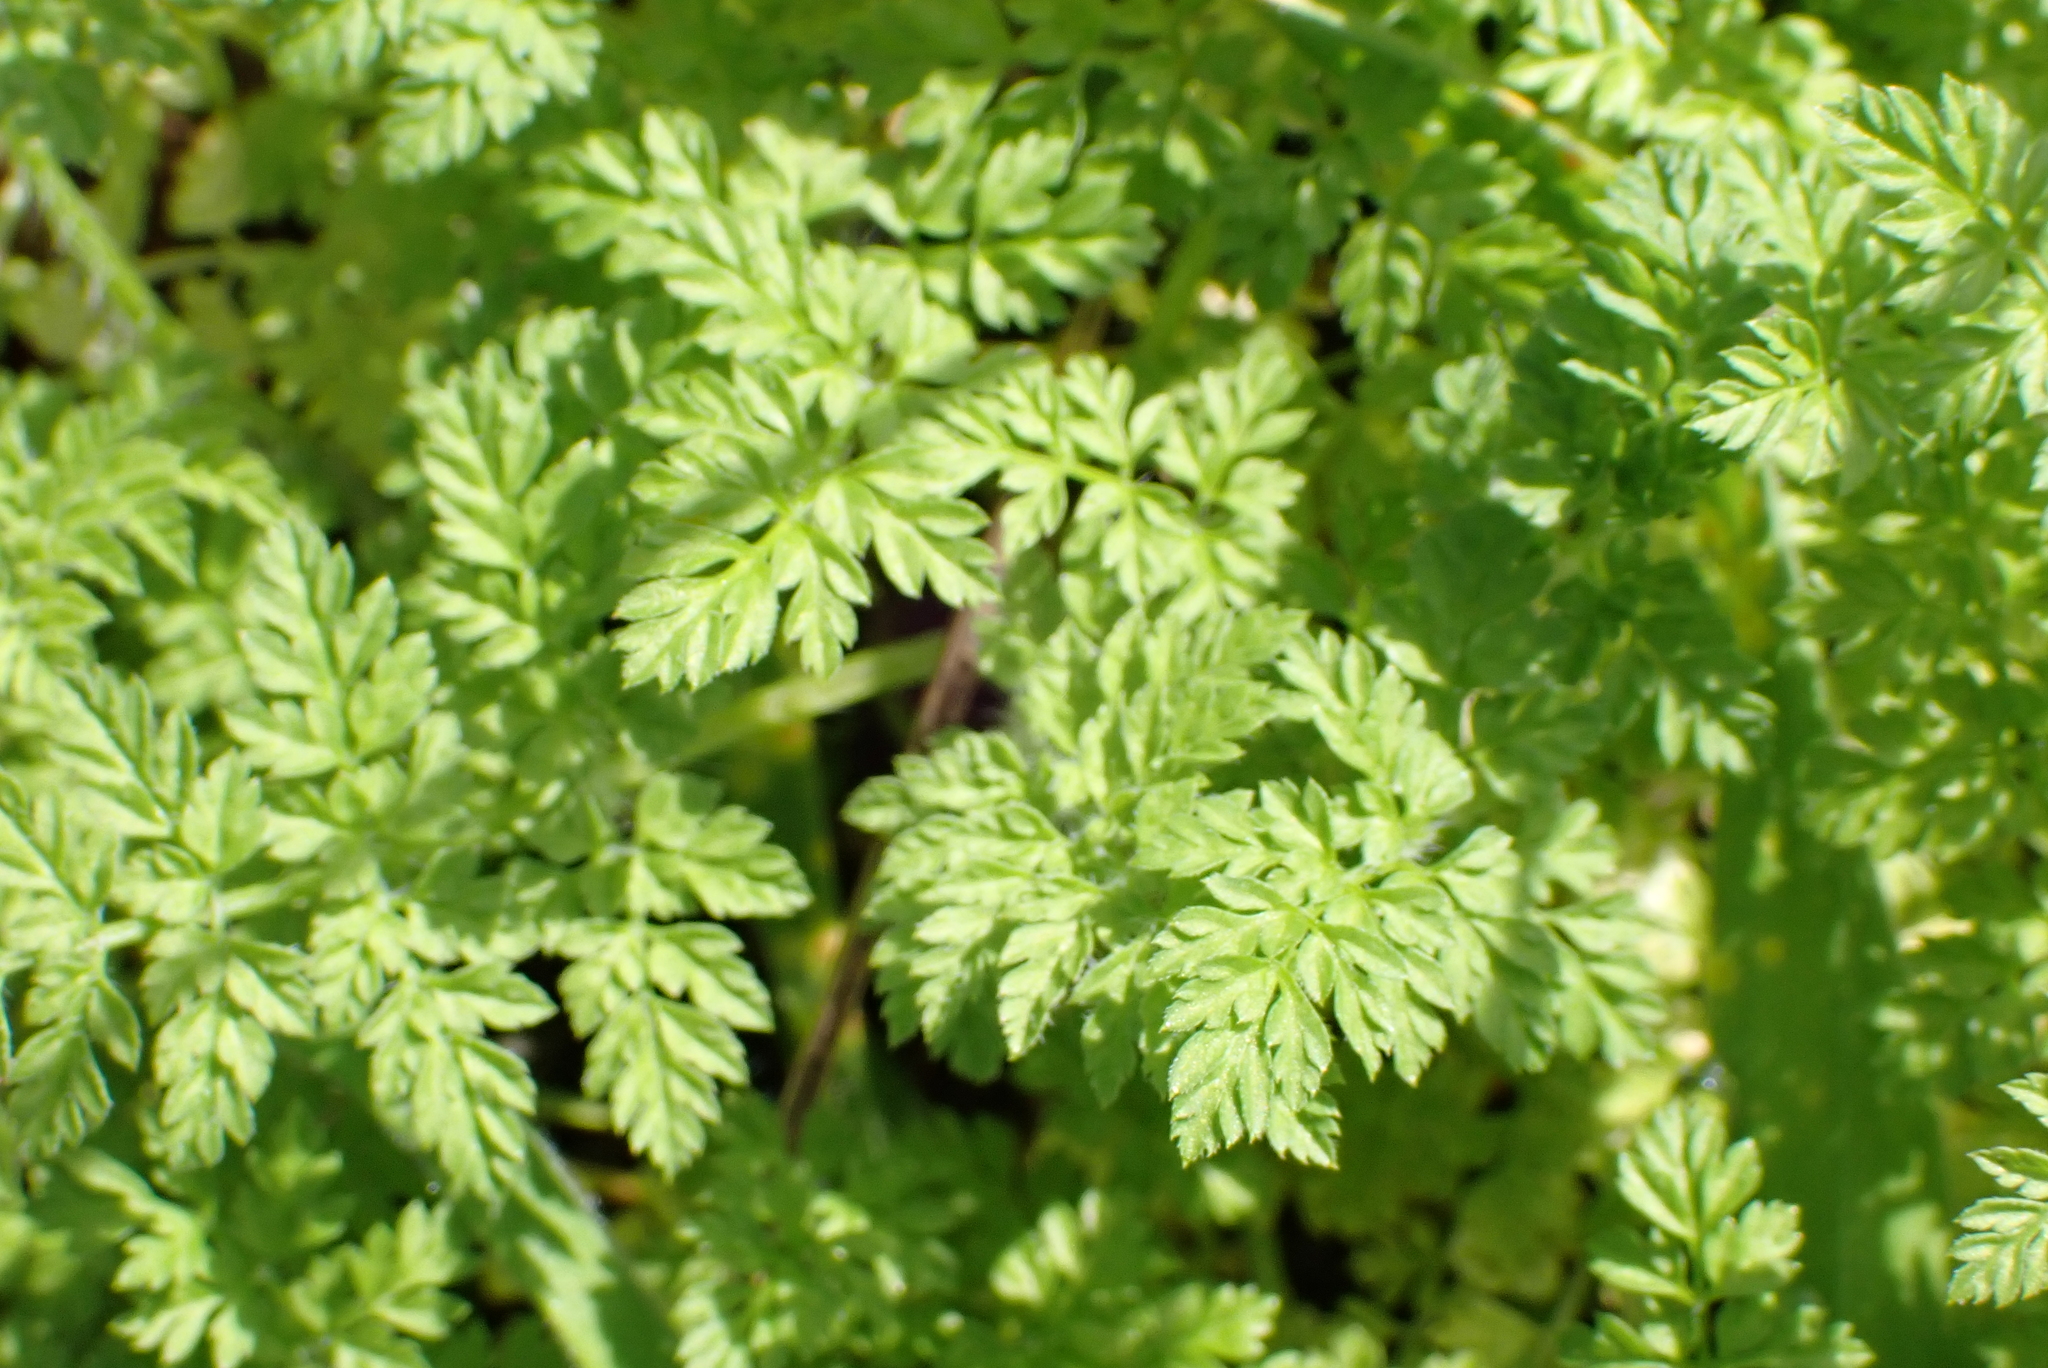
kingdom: Plantae
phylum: Tracheophyta
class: Magnoliopsida
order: Apiales
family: Apiaceae
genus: Anthriscus
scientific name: Anthriscus caucalis
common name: Bur chervil
